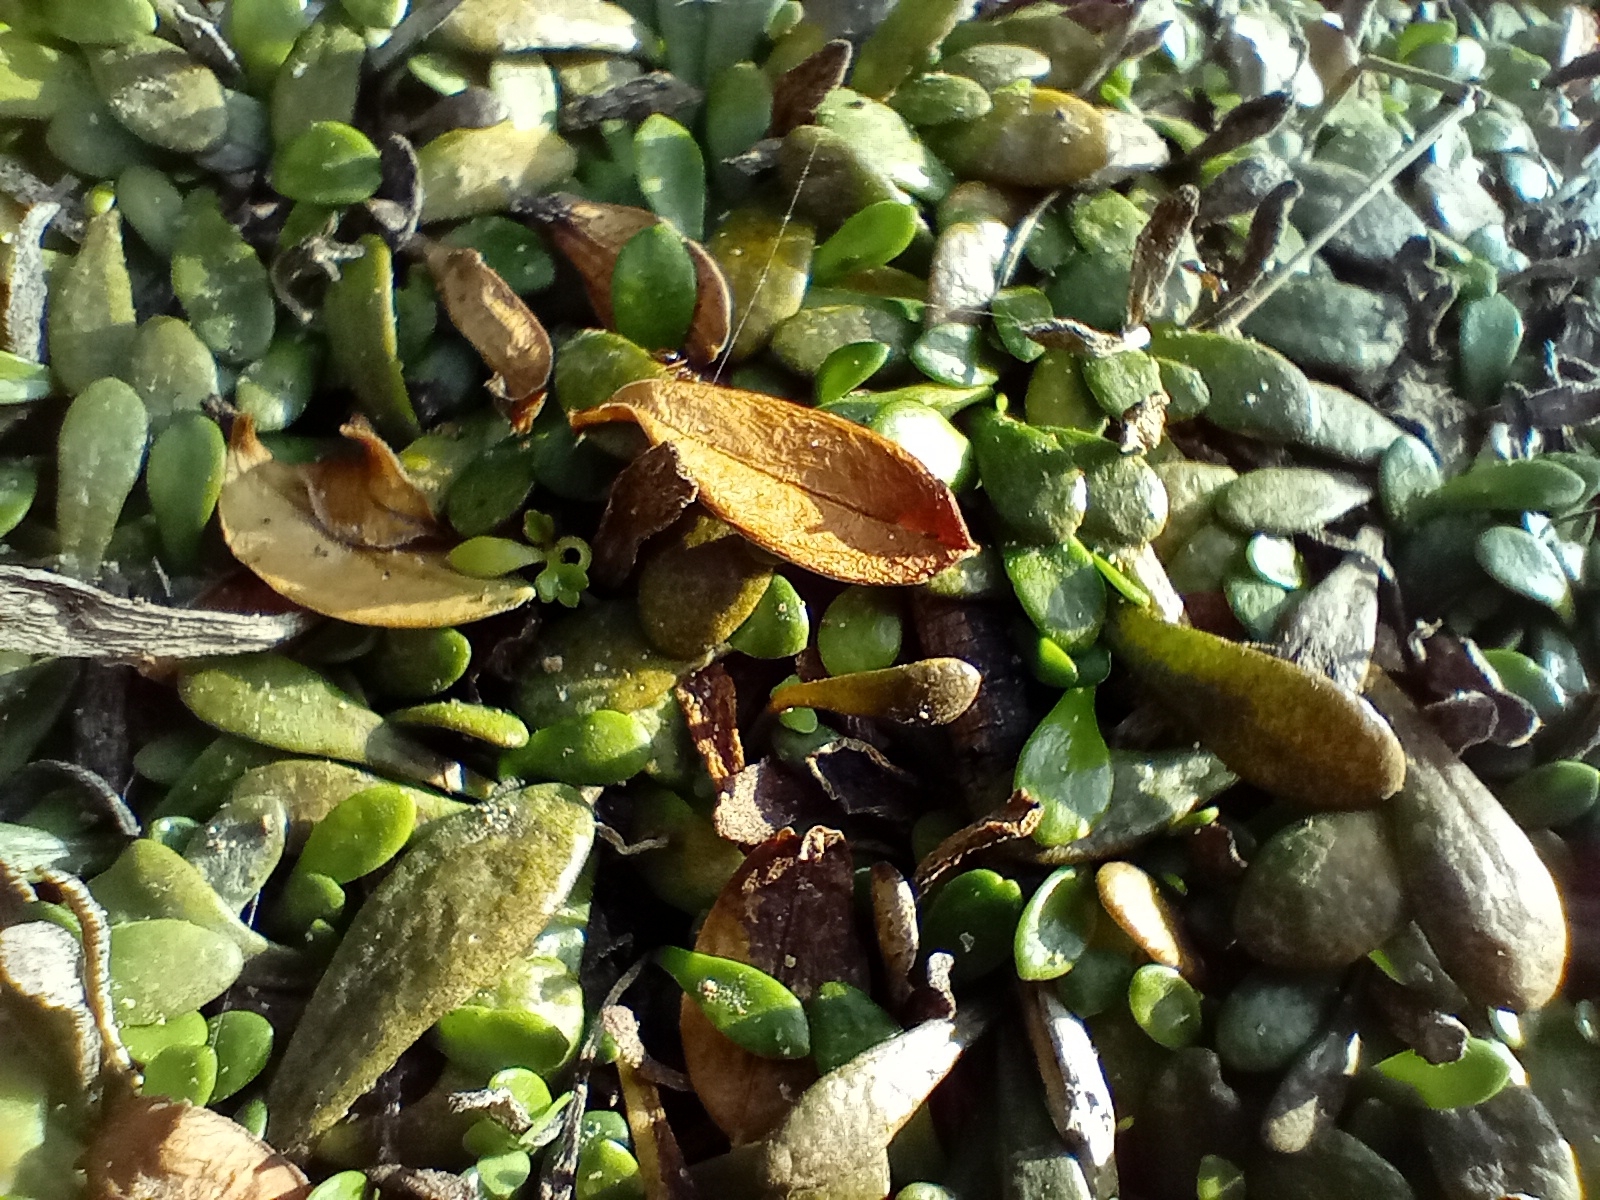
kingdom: Plantae
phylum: Tracheophyta
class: Magnoliopsida
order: Asterales
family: Goodeniaceae
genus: Goodenia
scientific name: Goodenia radicans
